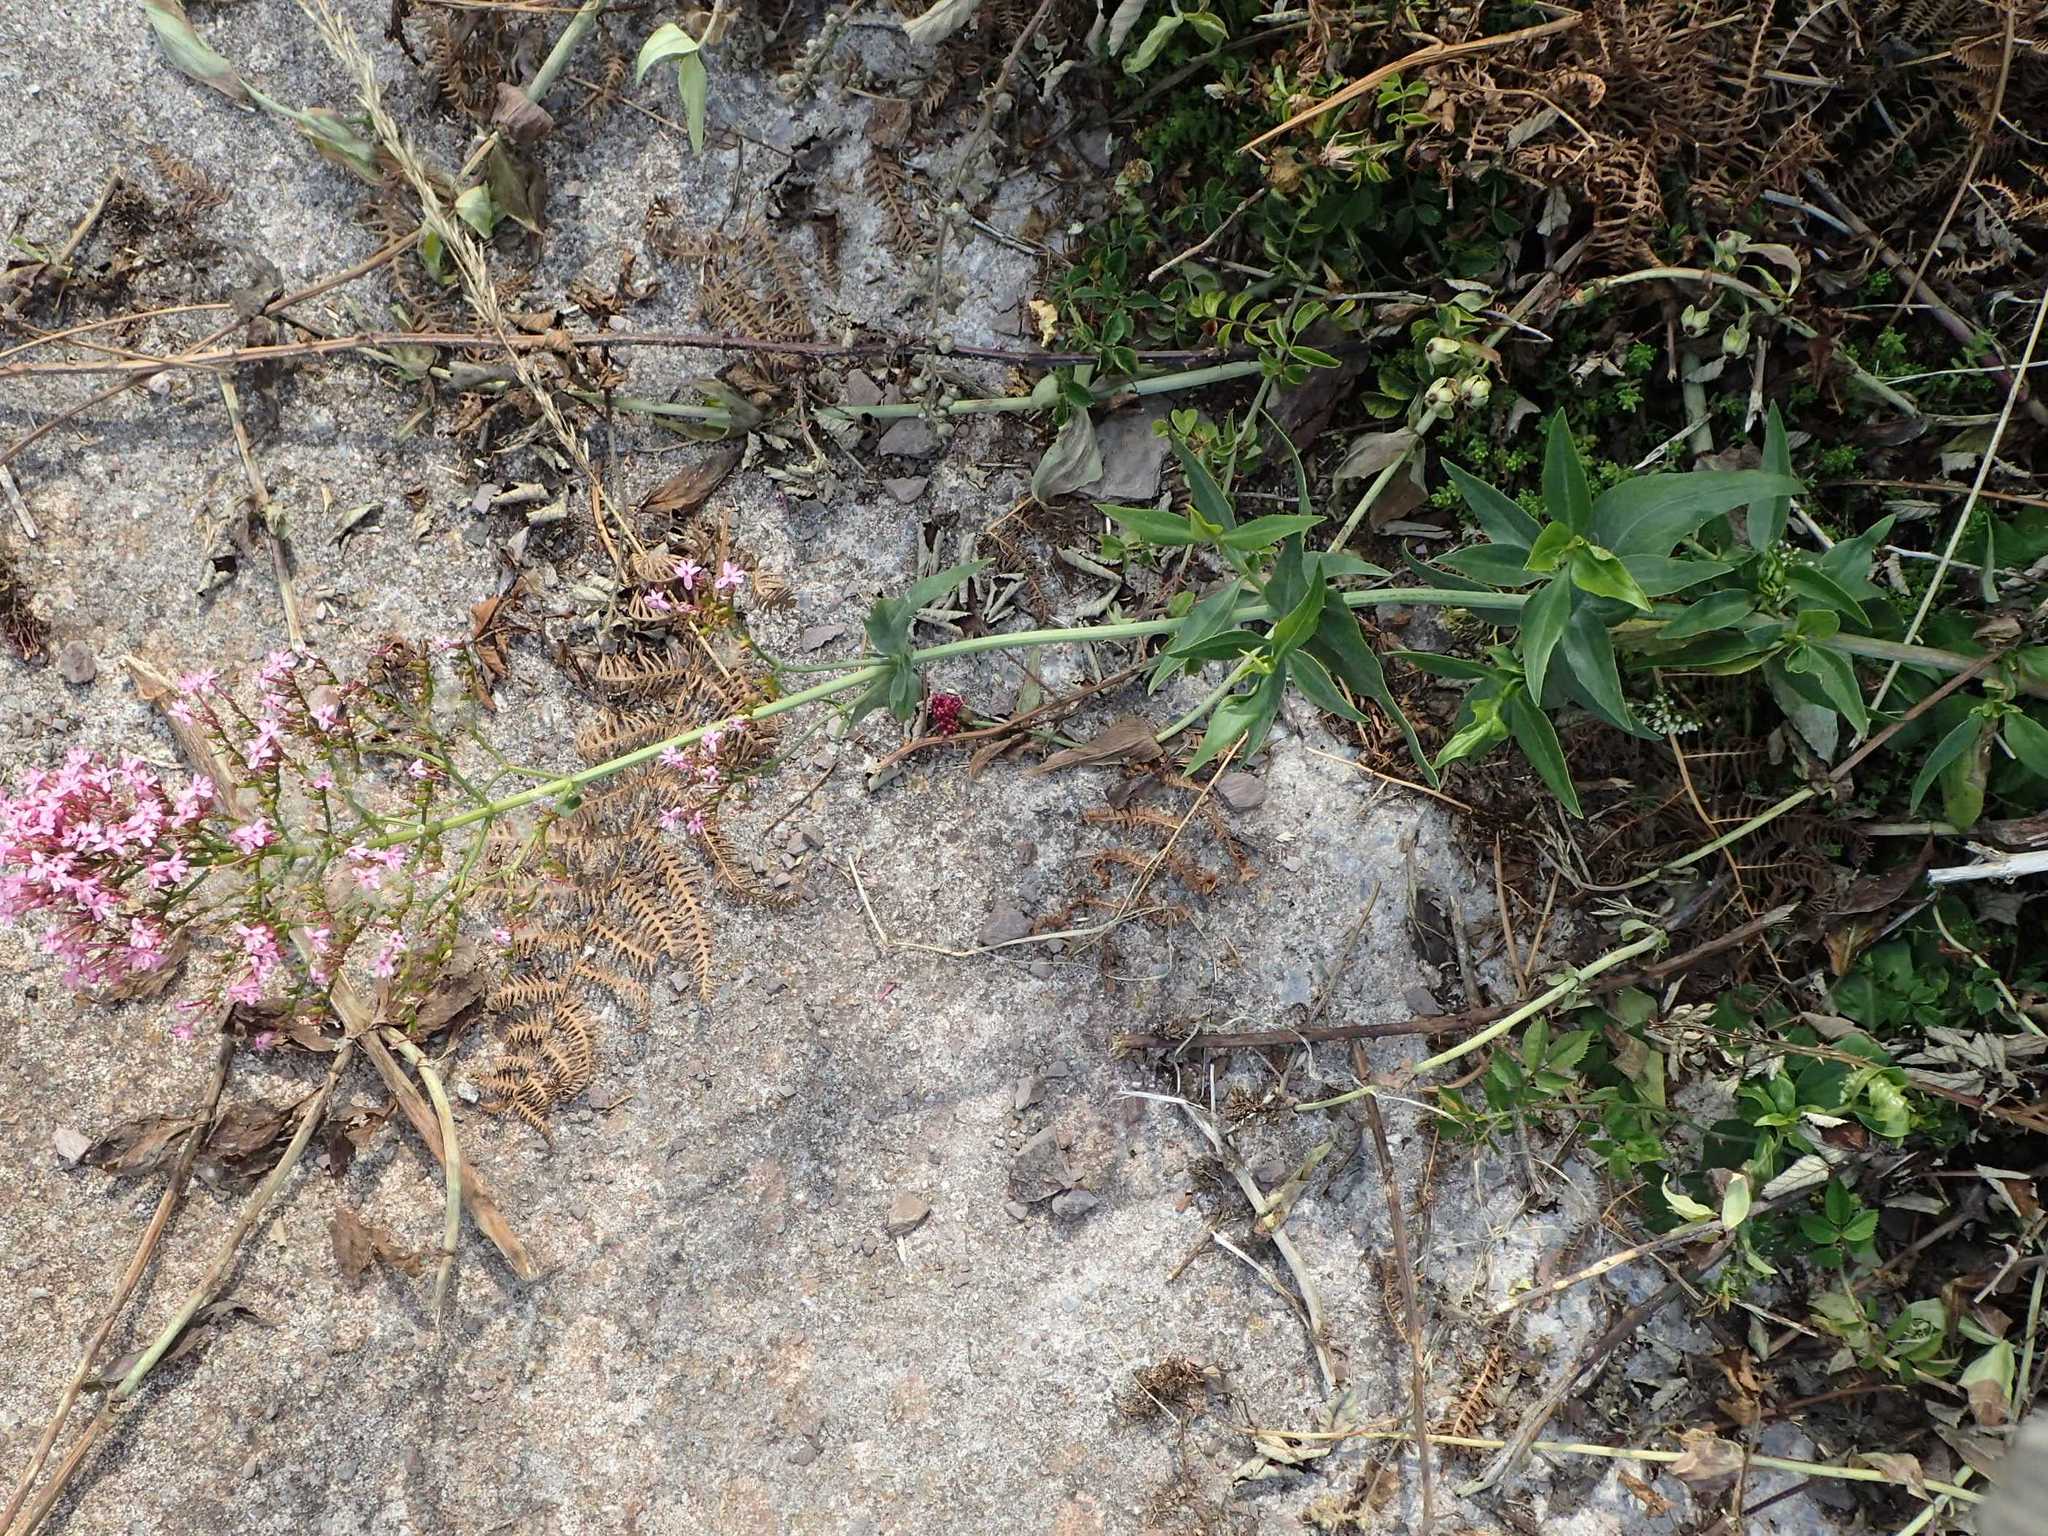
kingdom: Plantae
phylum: Tracheophyta
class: Magnoliopsida
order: Dipsacales
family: Caprifoliaceae
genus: Centranthus
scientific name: Centranthus ruber
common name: Red valerian
